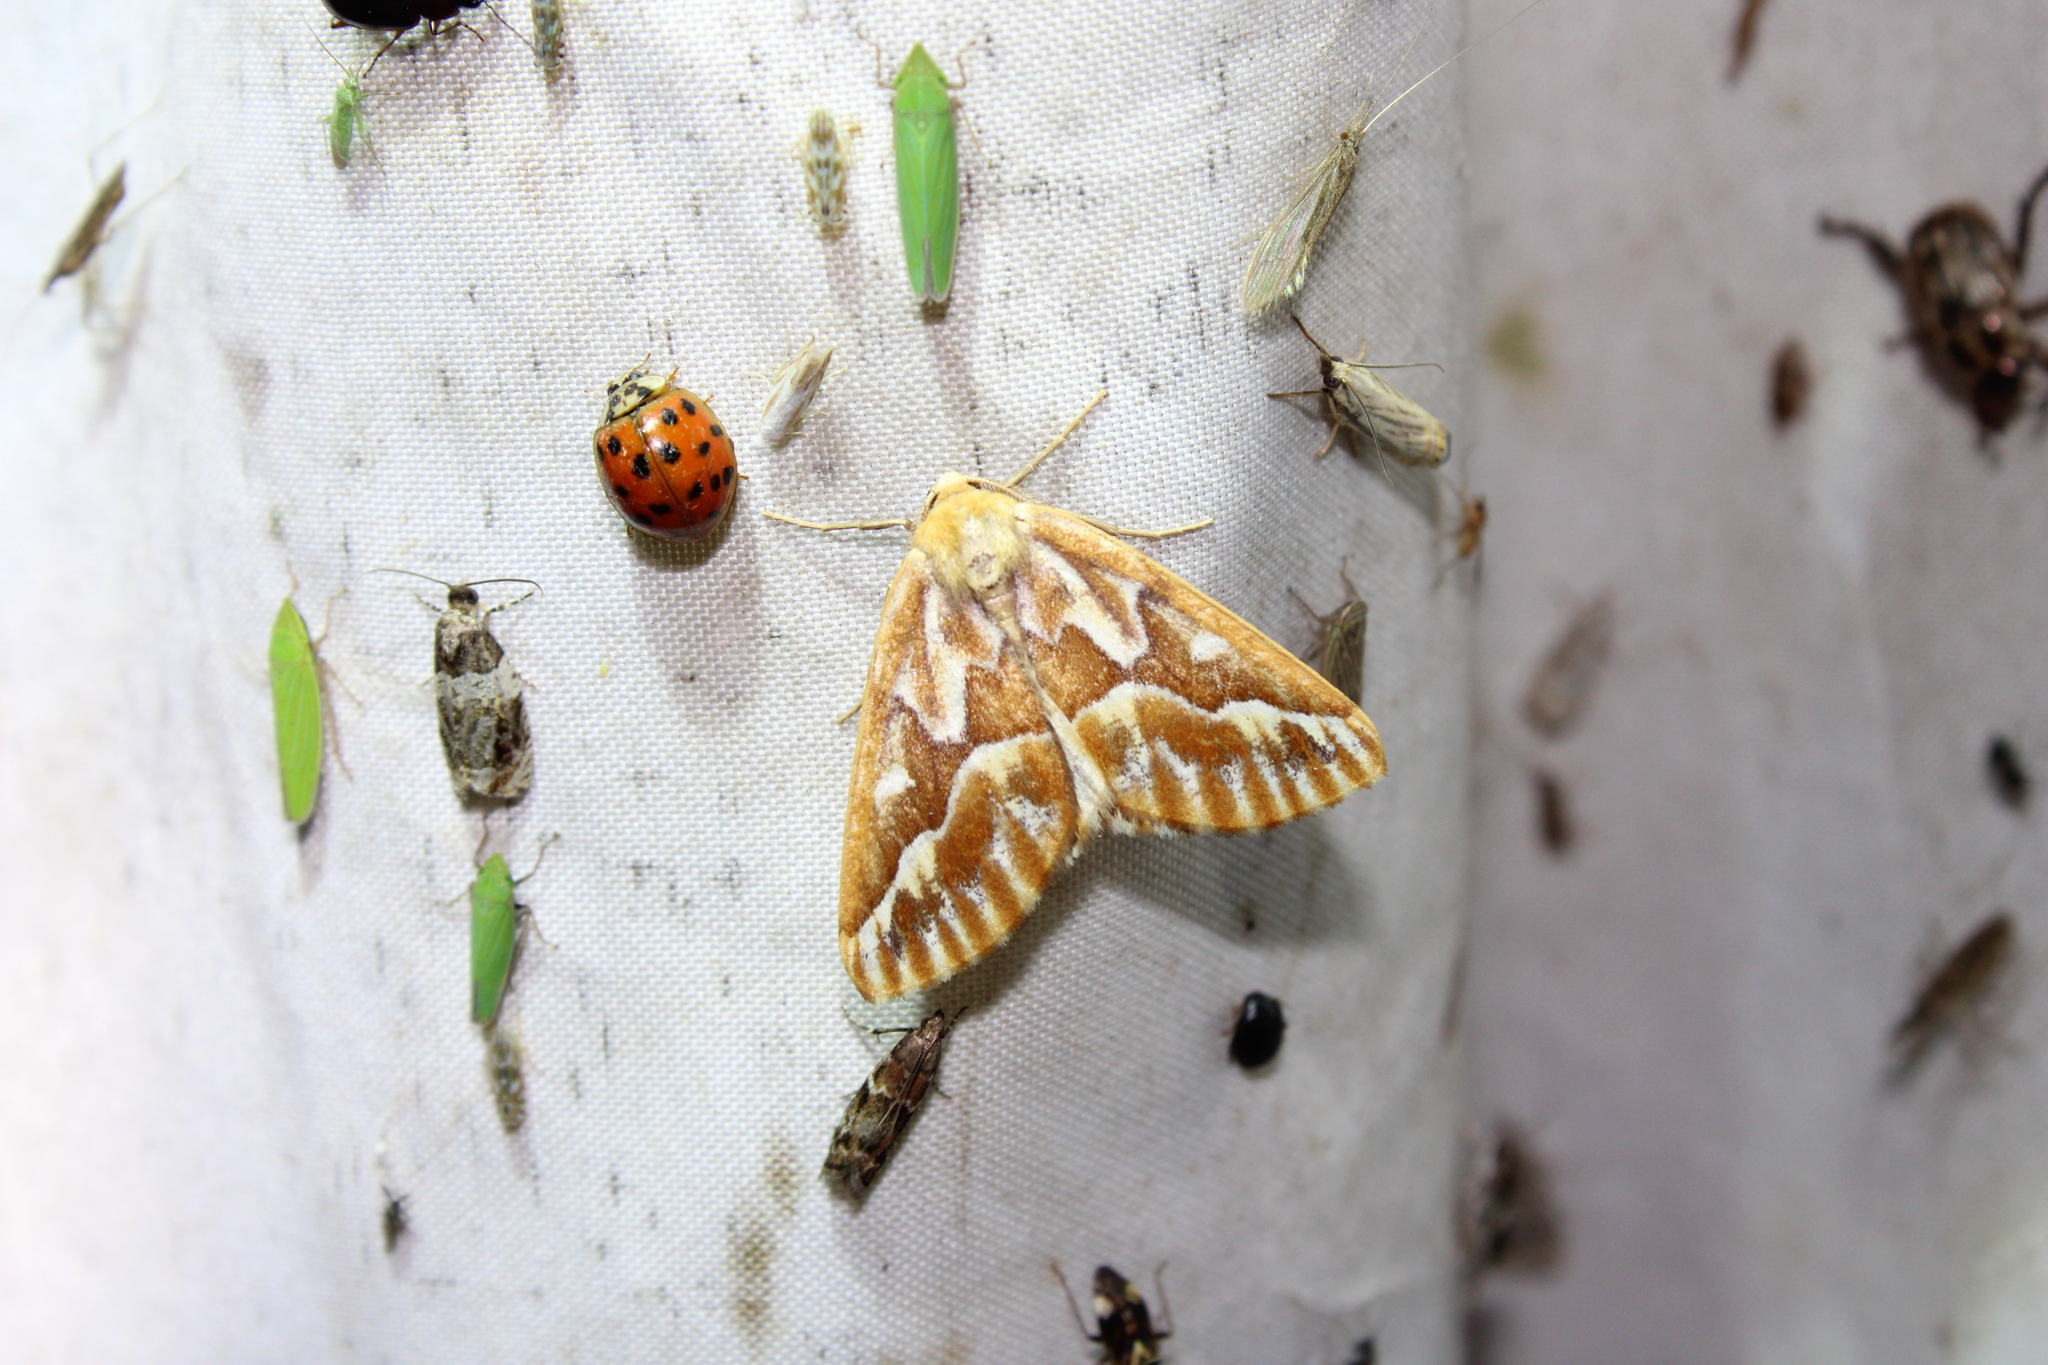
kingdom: Animalia
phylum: Arthropoda
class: Insecta
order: Lepidoptera
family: Geometridae
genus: Caripeta
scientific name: Caripeta piniata
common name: Northern pine looper moth
